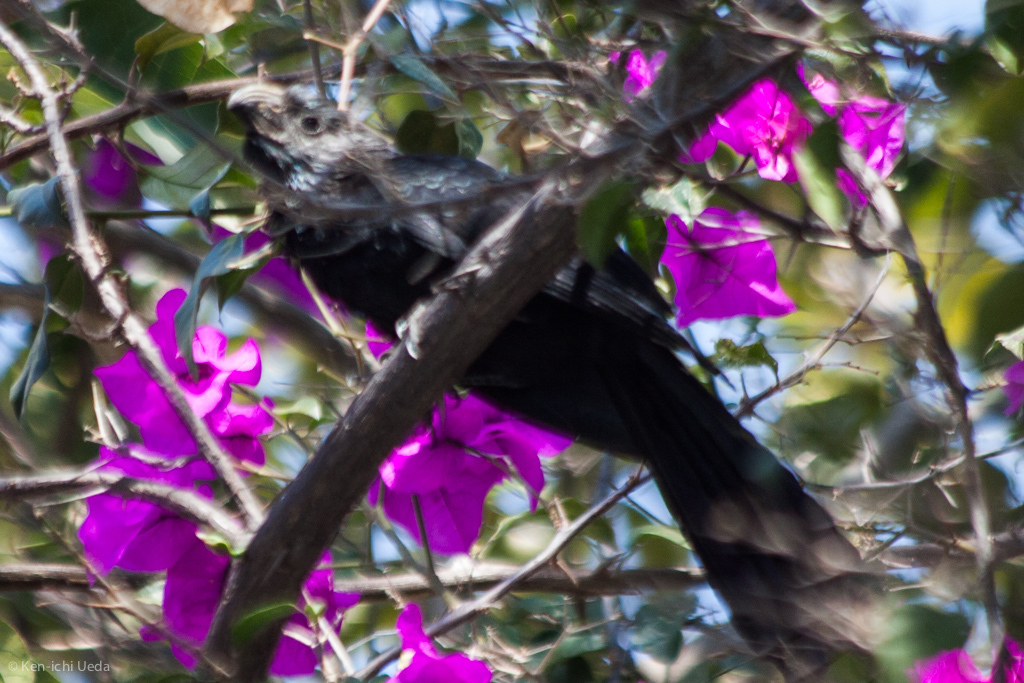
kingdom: Animalia
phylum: Chordata
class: Aves
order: Cuculiformes
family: Cuculidae
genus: Crotophaga
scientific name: Crotophaga sulcirostris
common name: Groove-billed ani
